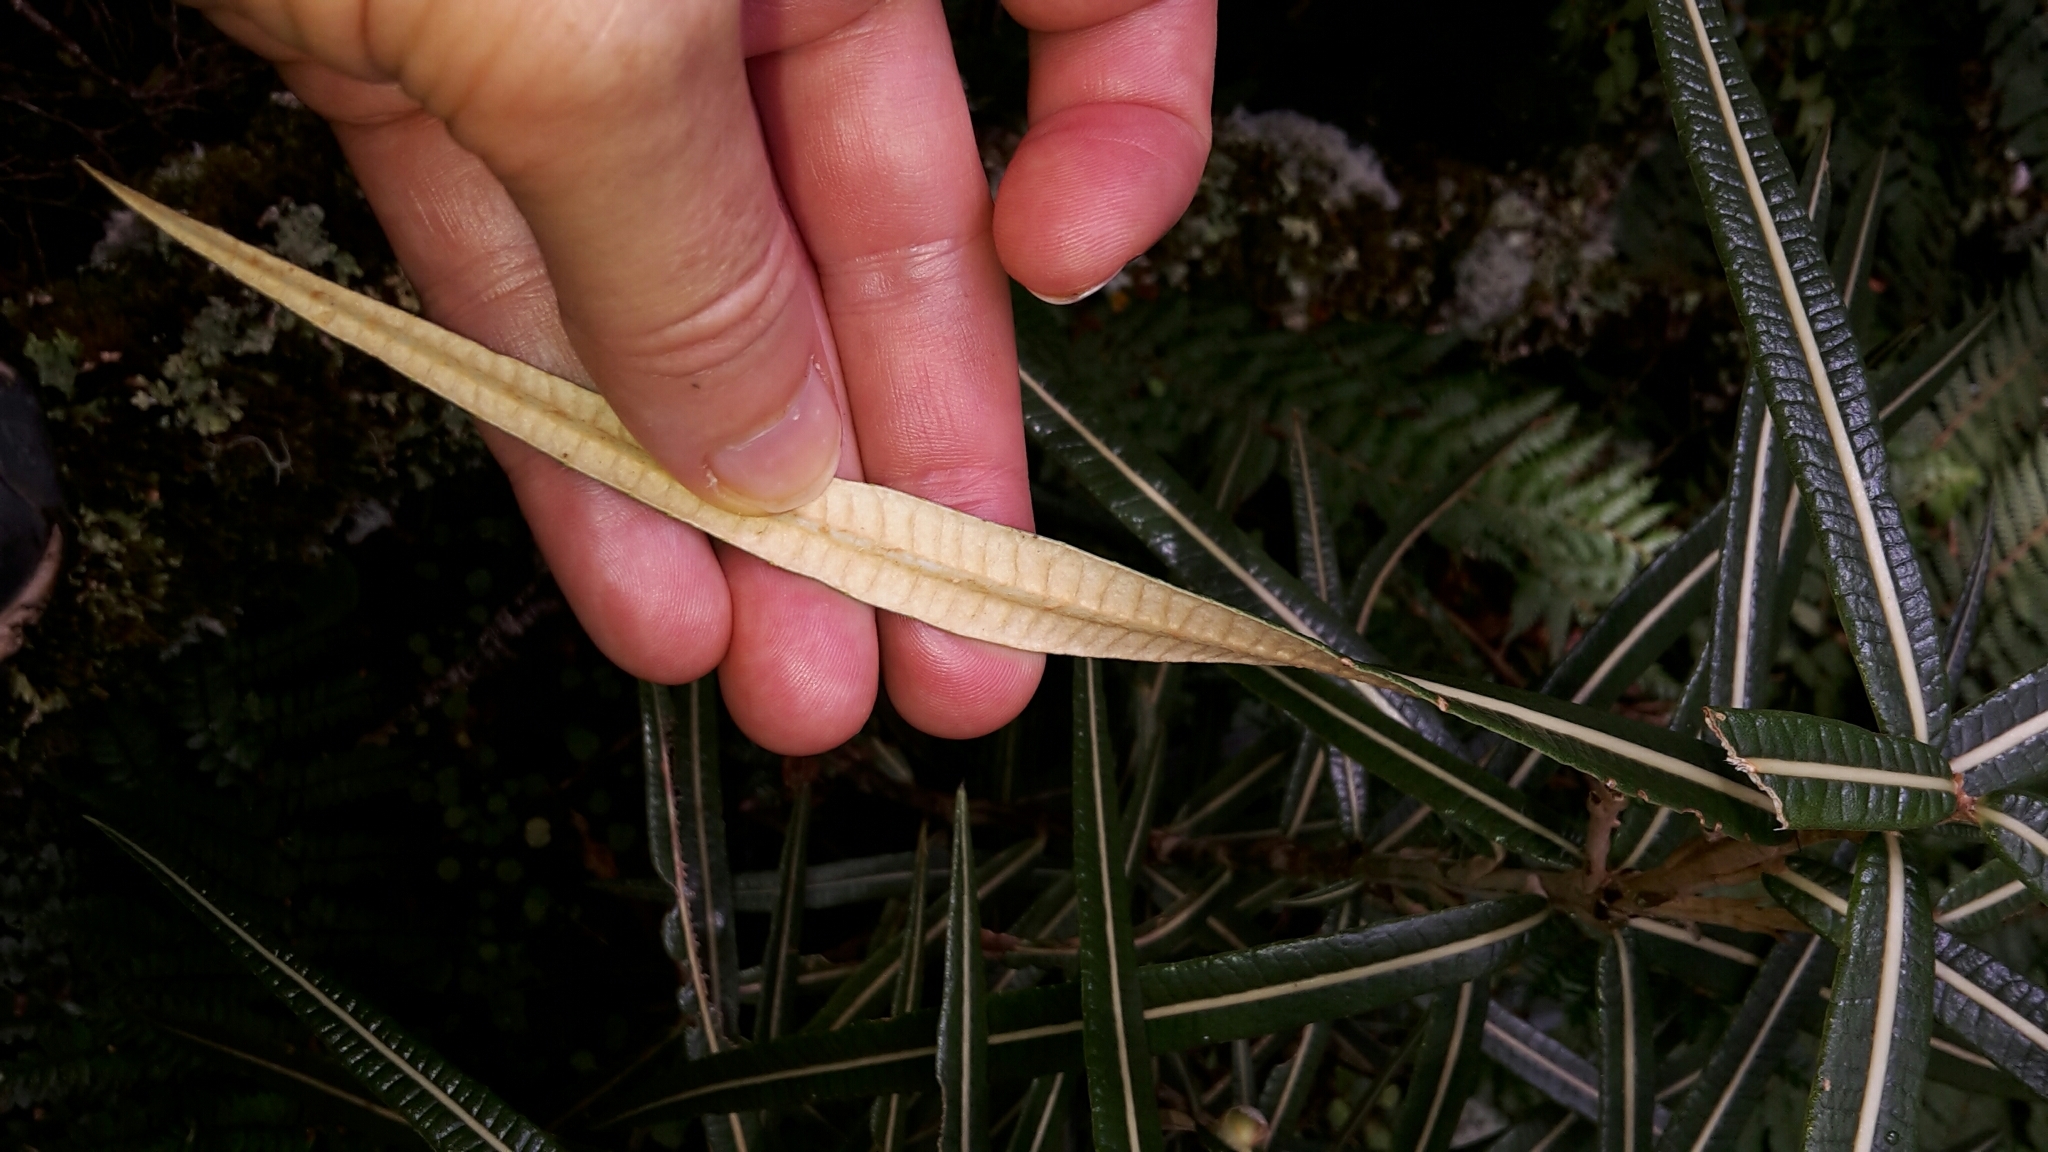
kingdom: Plantae
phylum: Tracheophyta
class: Magnoliopsida
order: Asterales
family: Asteraceae
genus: Olearia
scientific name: Olearia lacunosa
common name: Lancewood tree daisy
